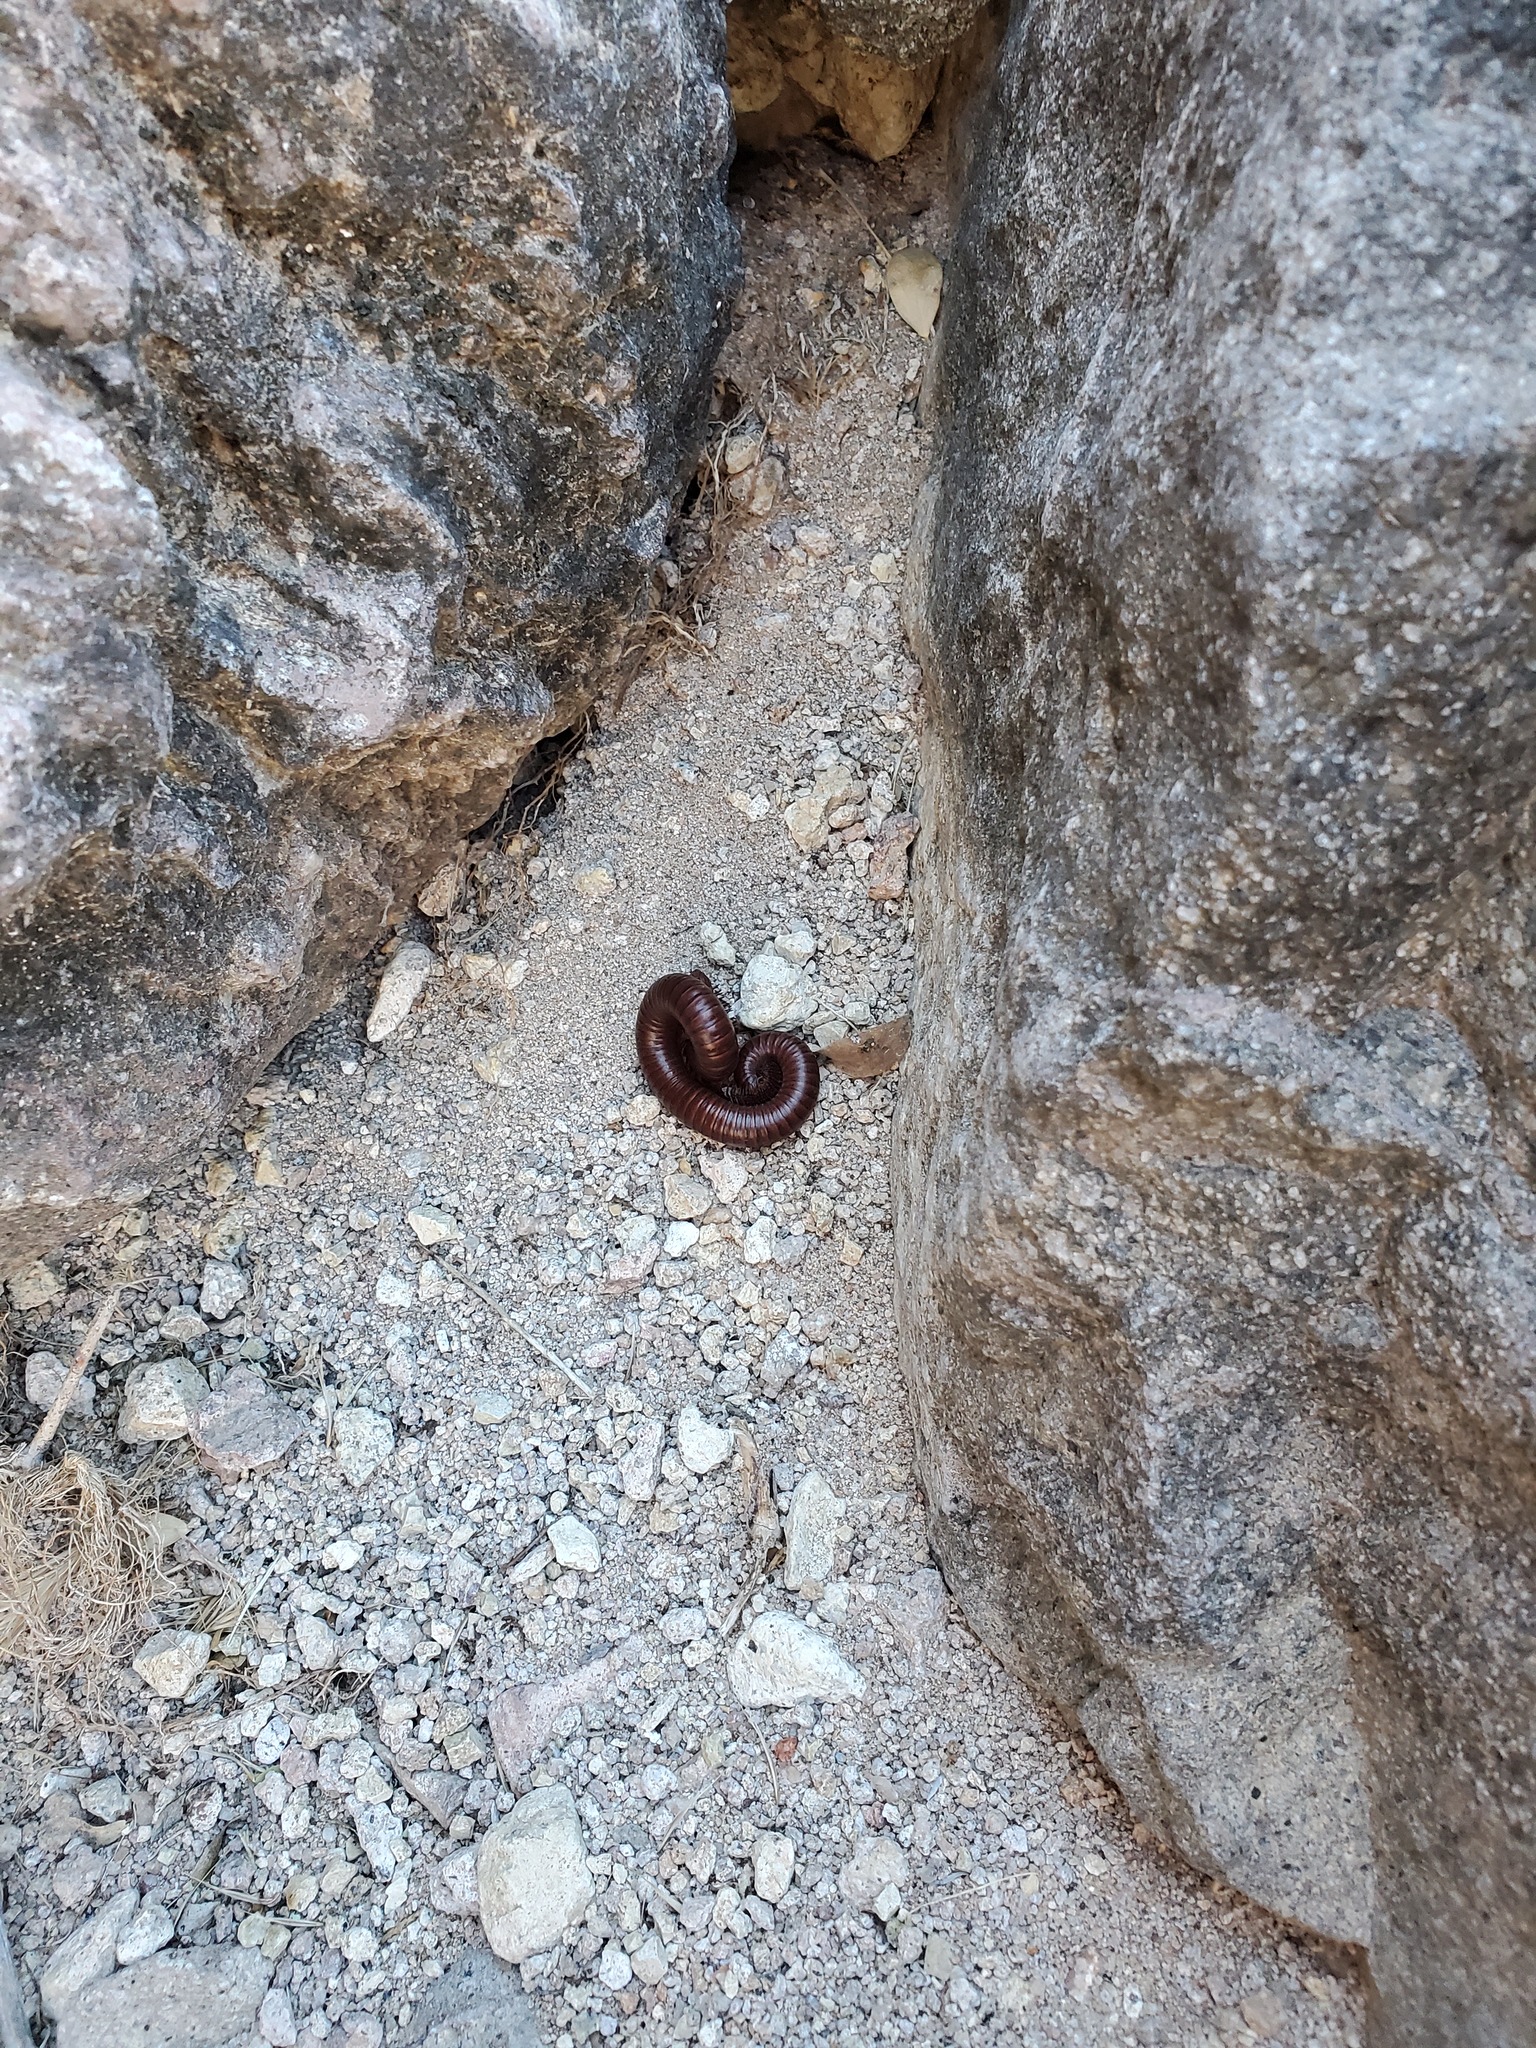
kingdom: Animalia
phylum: Arthropoda
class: Diplopoda
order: Spirostreptida
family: Spirostreptidae
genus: Orthoporus
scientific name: Orthoporus ornatus
